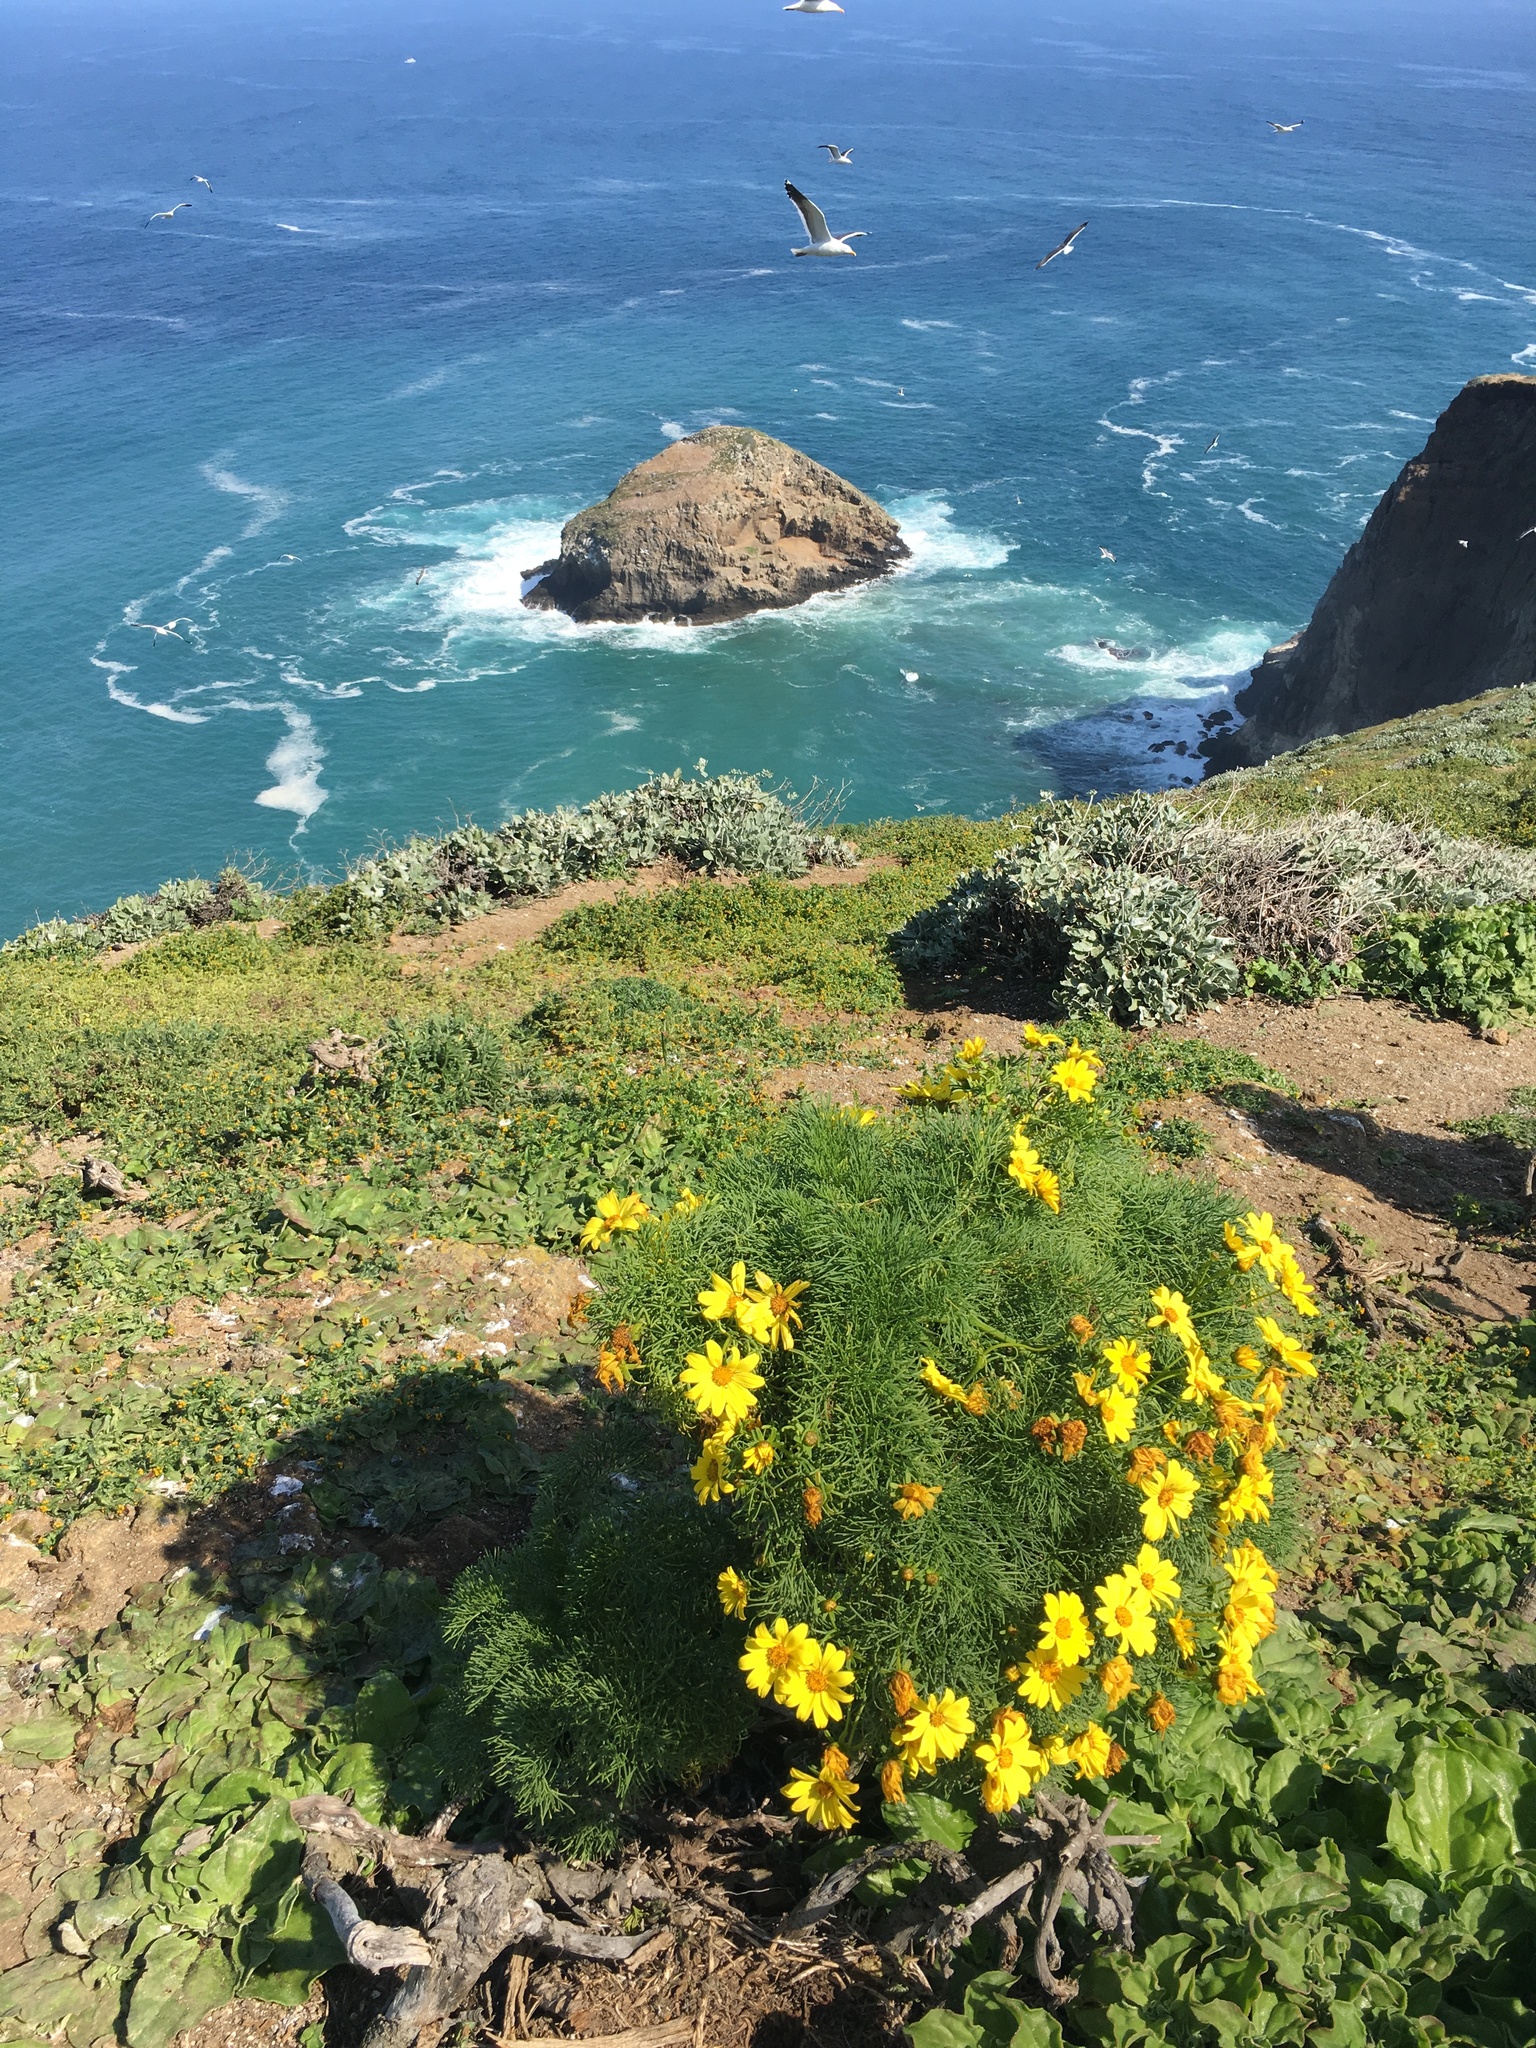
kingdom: Plantae
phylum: Tracheophyta
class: Magnoliopsida
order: Asterales
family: Asteraceae
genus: Coreopsis
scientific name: Coreopsis gigantea
